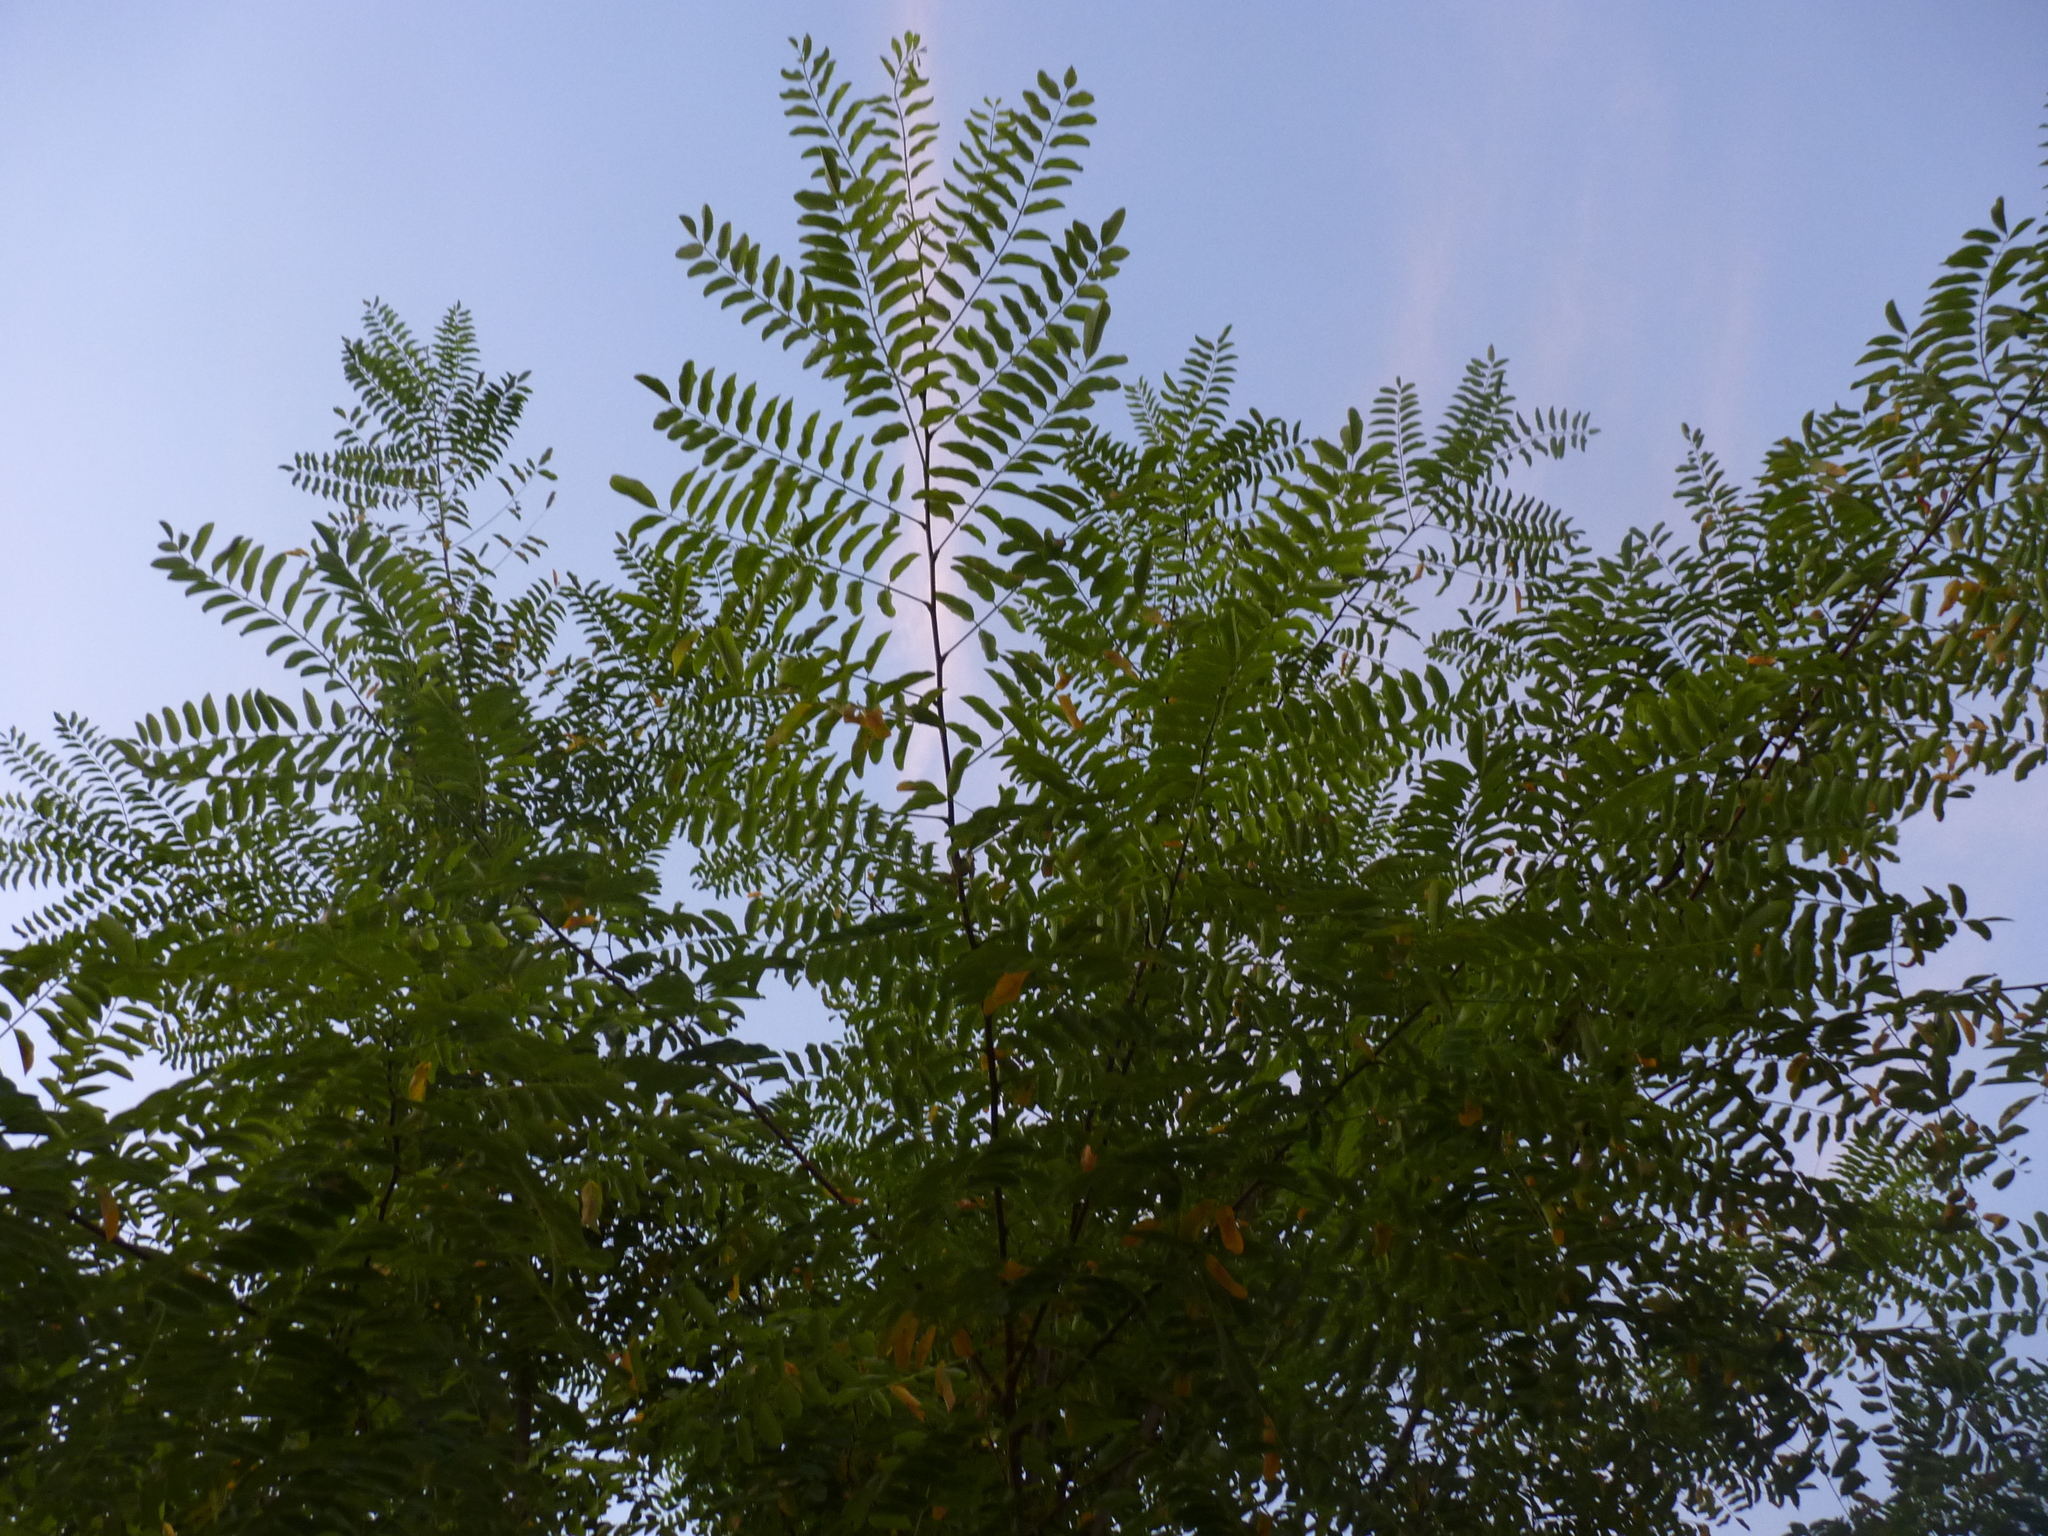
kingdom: Plantae
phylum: Tracheophyta
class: Magnoliopsida
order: Sapindales
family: Simaroubaceae
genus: Ailanthus
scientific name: Ailanthus altissima
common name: Tree-of-heaven
